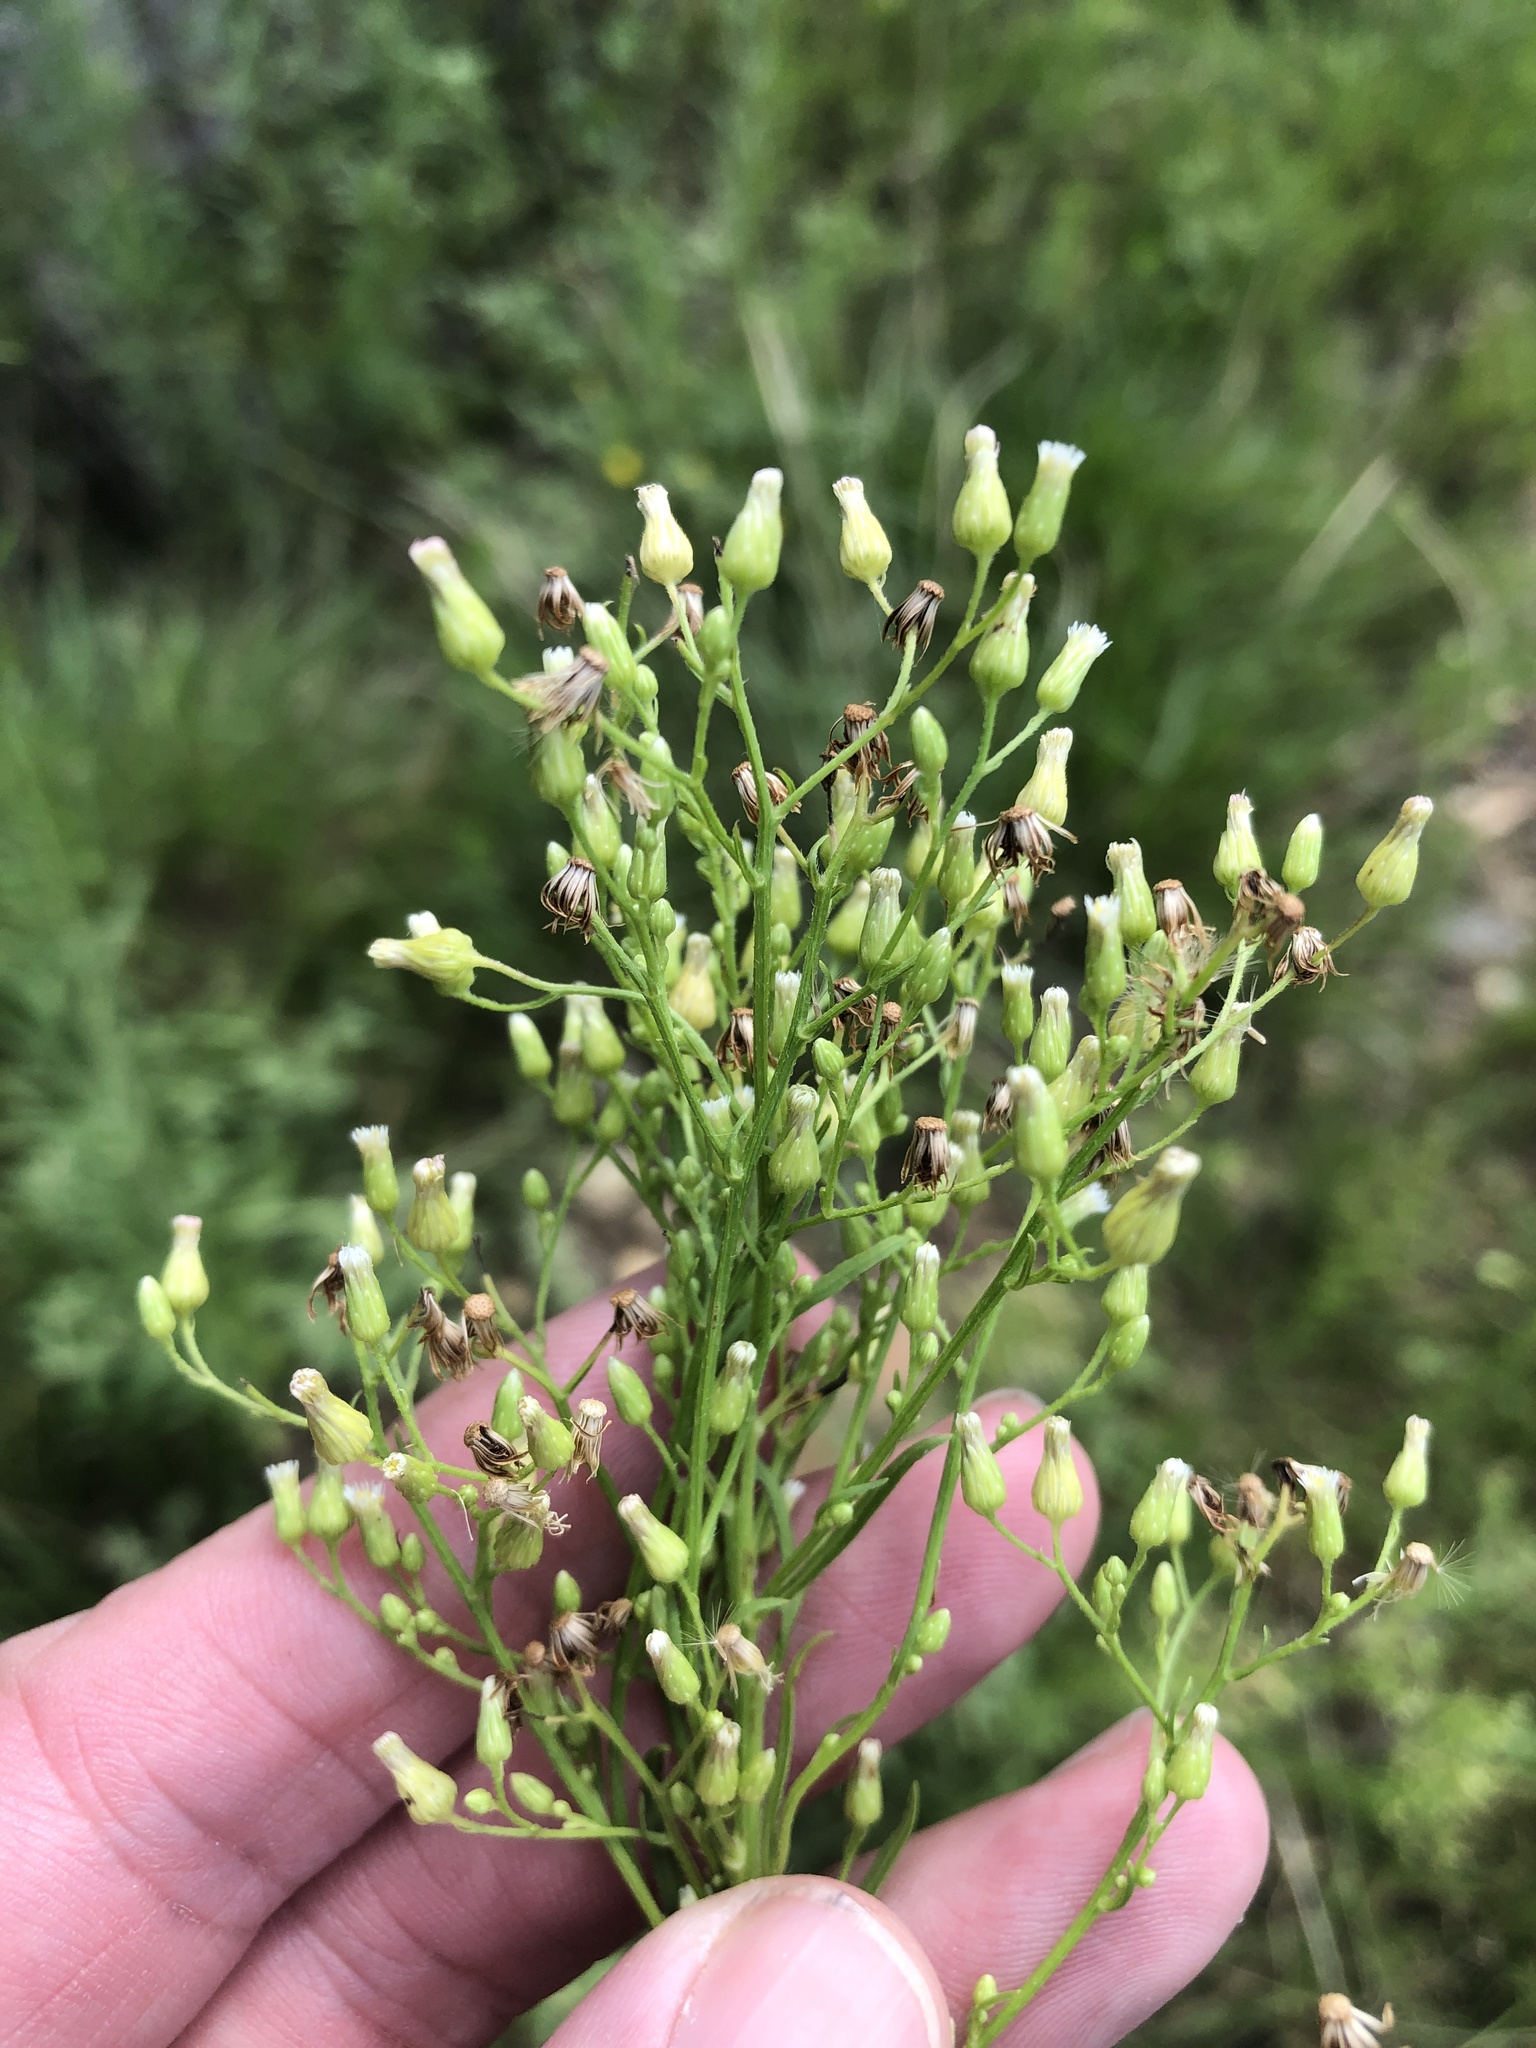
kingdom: Plantae
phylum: Tracheophyta
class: Magnoliopsida
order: Asterales
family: Asteraceae
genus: Erigeron
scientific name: Erigeron canadensis
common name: Canadian fleabane
